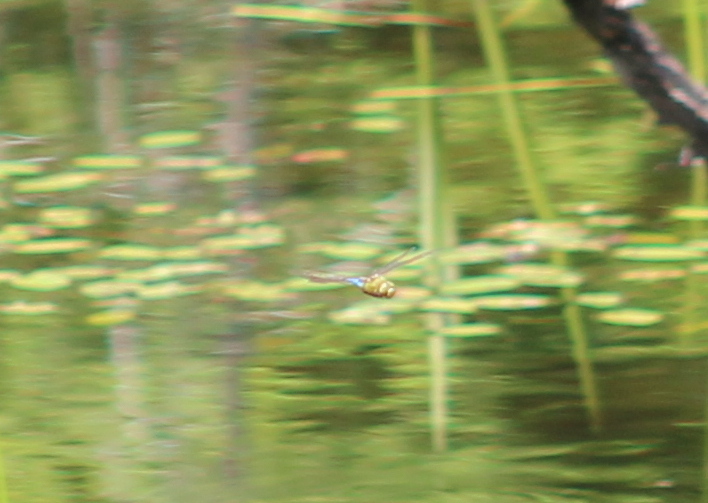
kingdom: Animalia
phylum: Arthropoda
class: Insecta
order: Odonata
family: Aeshnidae
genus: Anax
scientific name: Anax junius
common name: Common green darner
